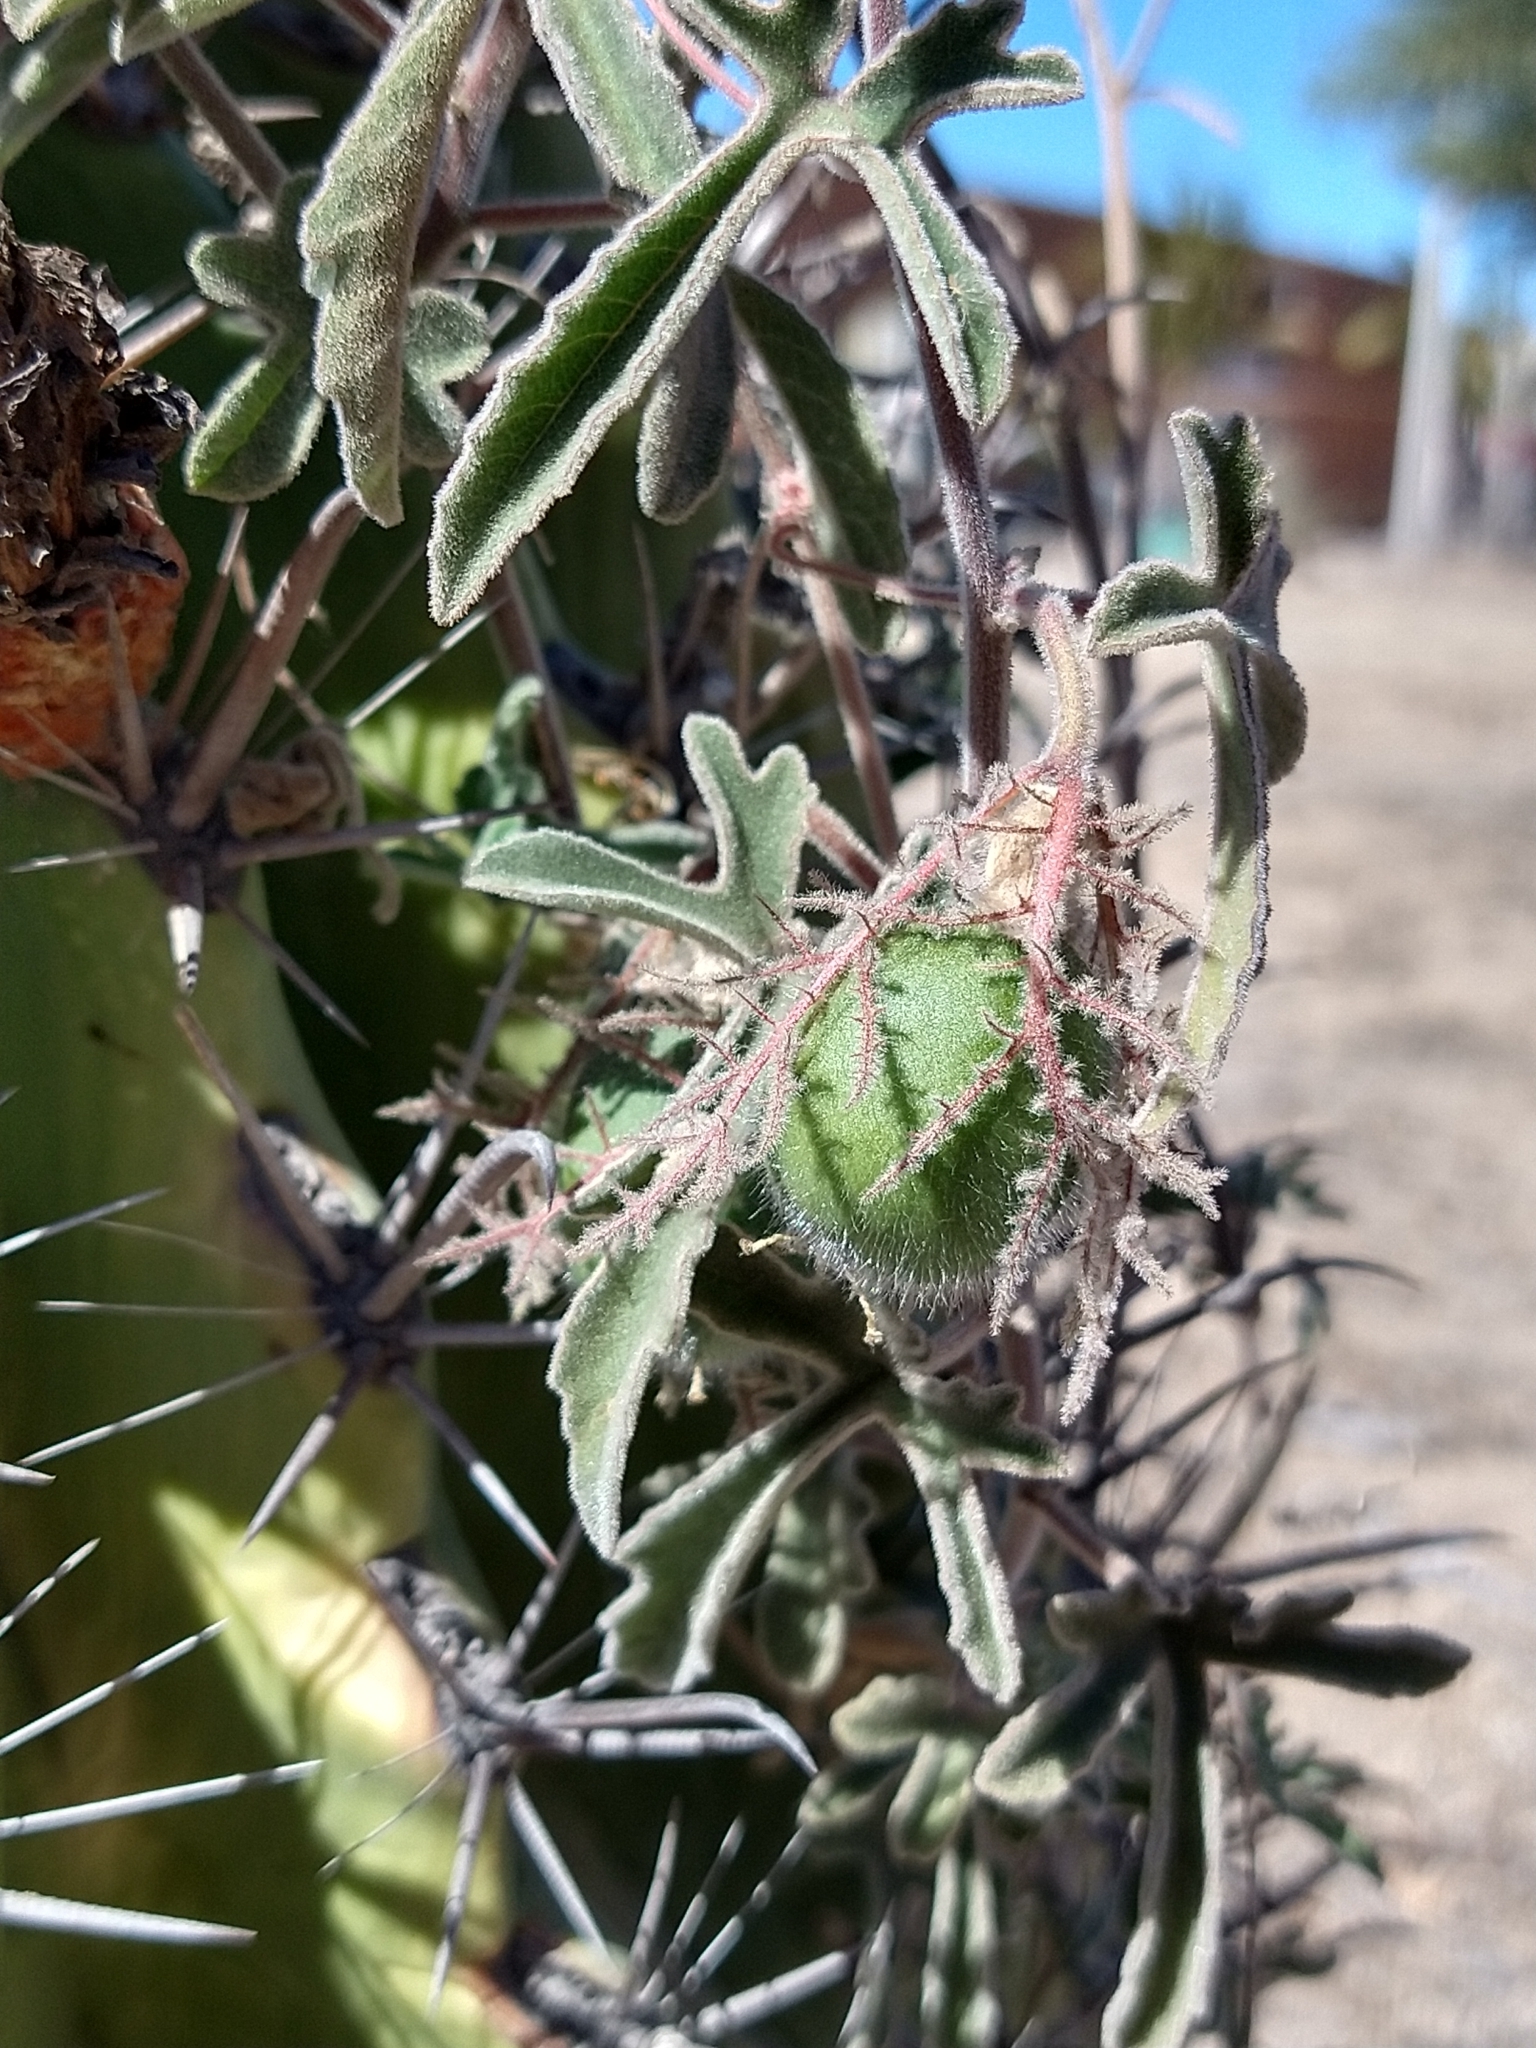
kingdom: Plantae
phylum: Tracheophyta
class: Magnoliopsida
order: Malpighiales
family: Passifloraceae
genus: Passiflora
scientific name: Passiflora pentaschista
